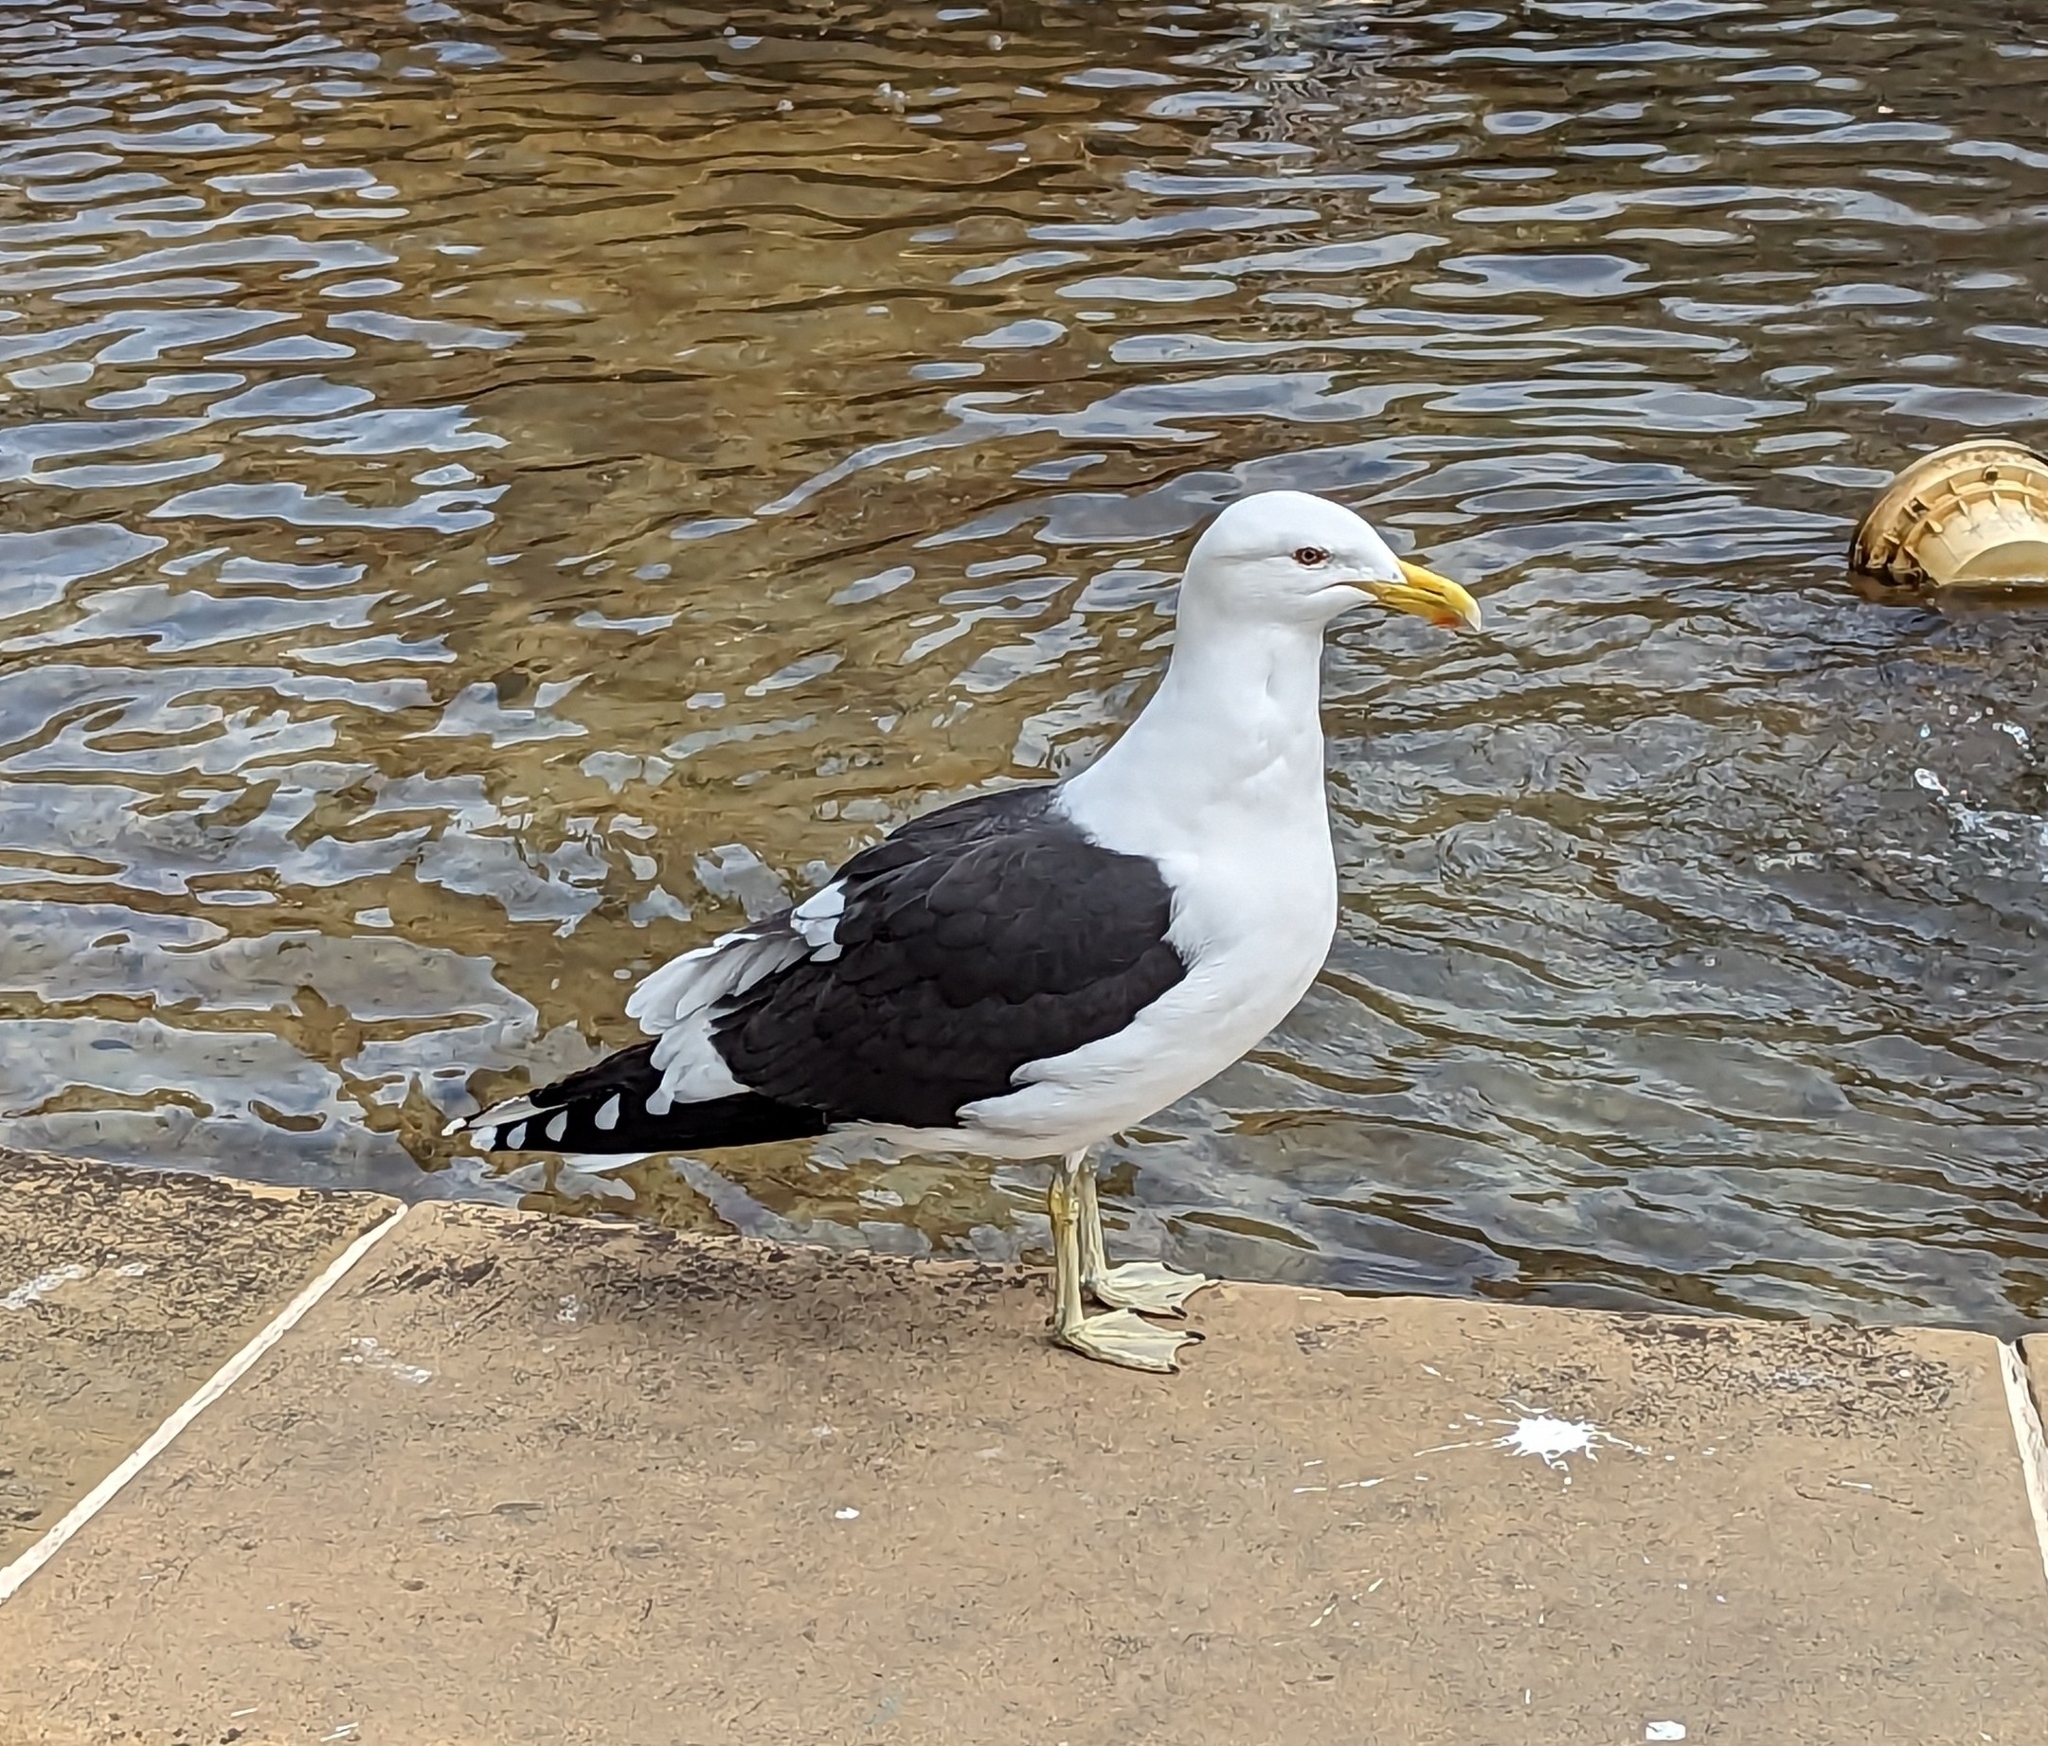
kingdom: Animalia
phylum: Chordata
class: Aves
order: Charadriiformes
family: Laridae
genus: Larus
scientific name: Larus dominicanus
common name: Kelp gull
